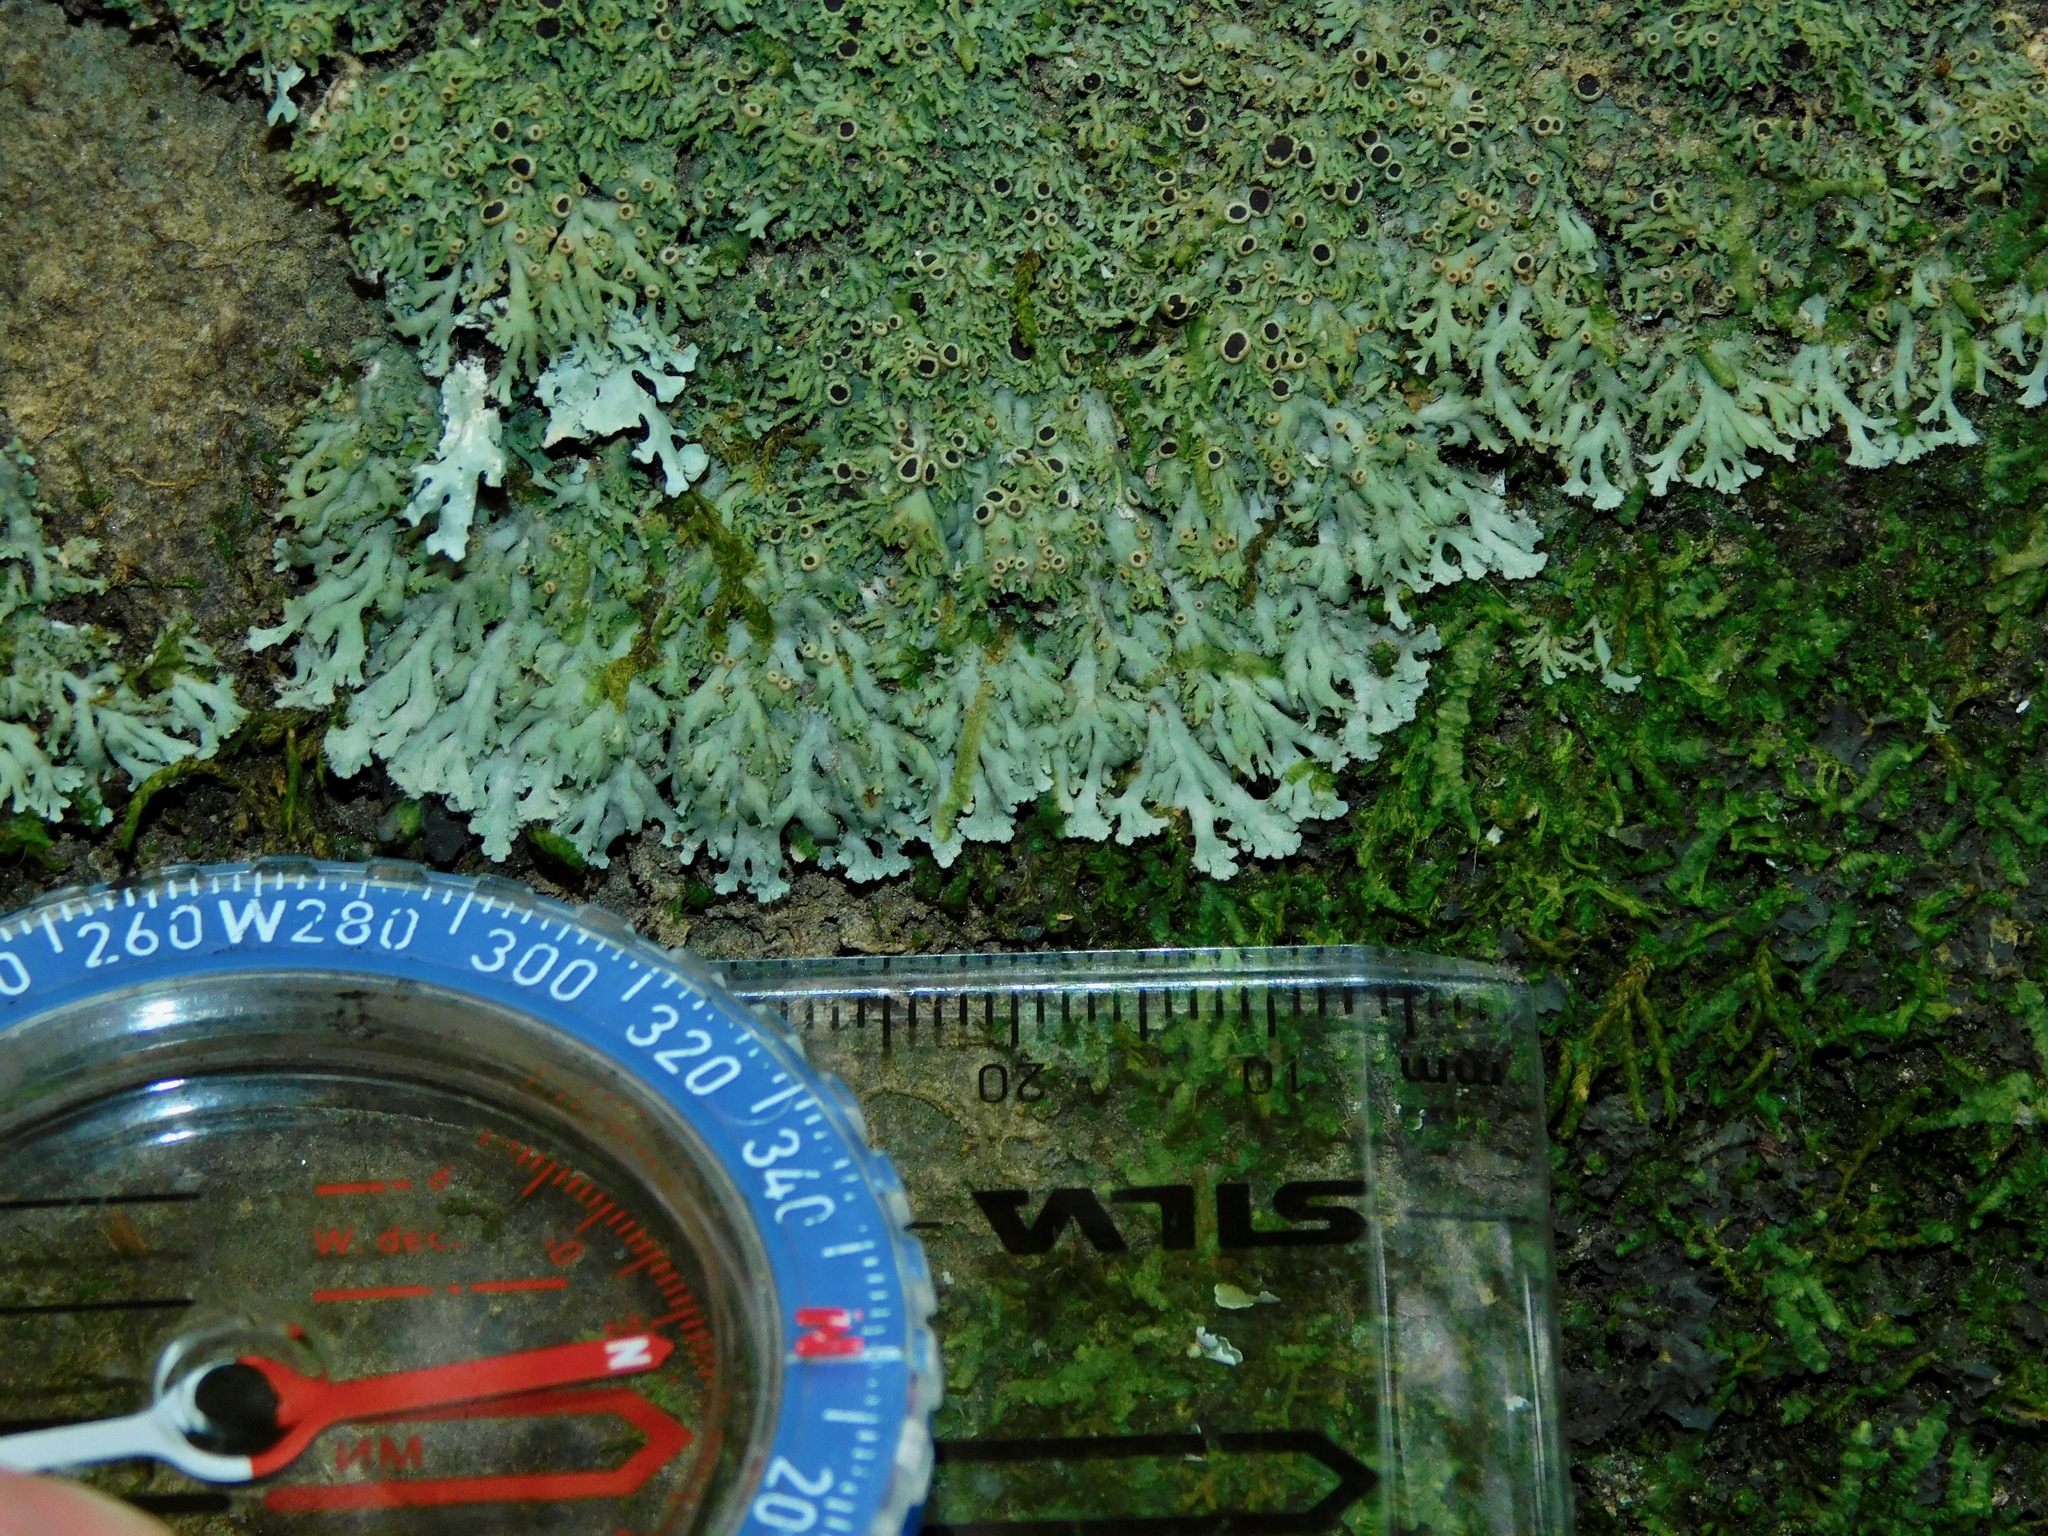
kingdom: Fungi
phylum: Ascomycota
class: Lecanoromycetes
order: Caliciales
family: Physciaceae
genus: Kurokawia
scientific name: Kurokawia palmulata
